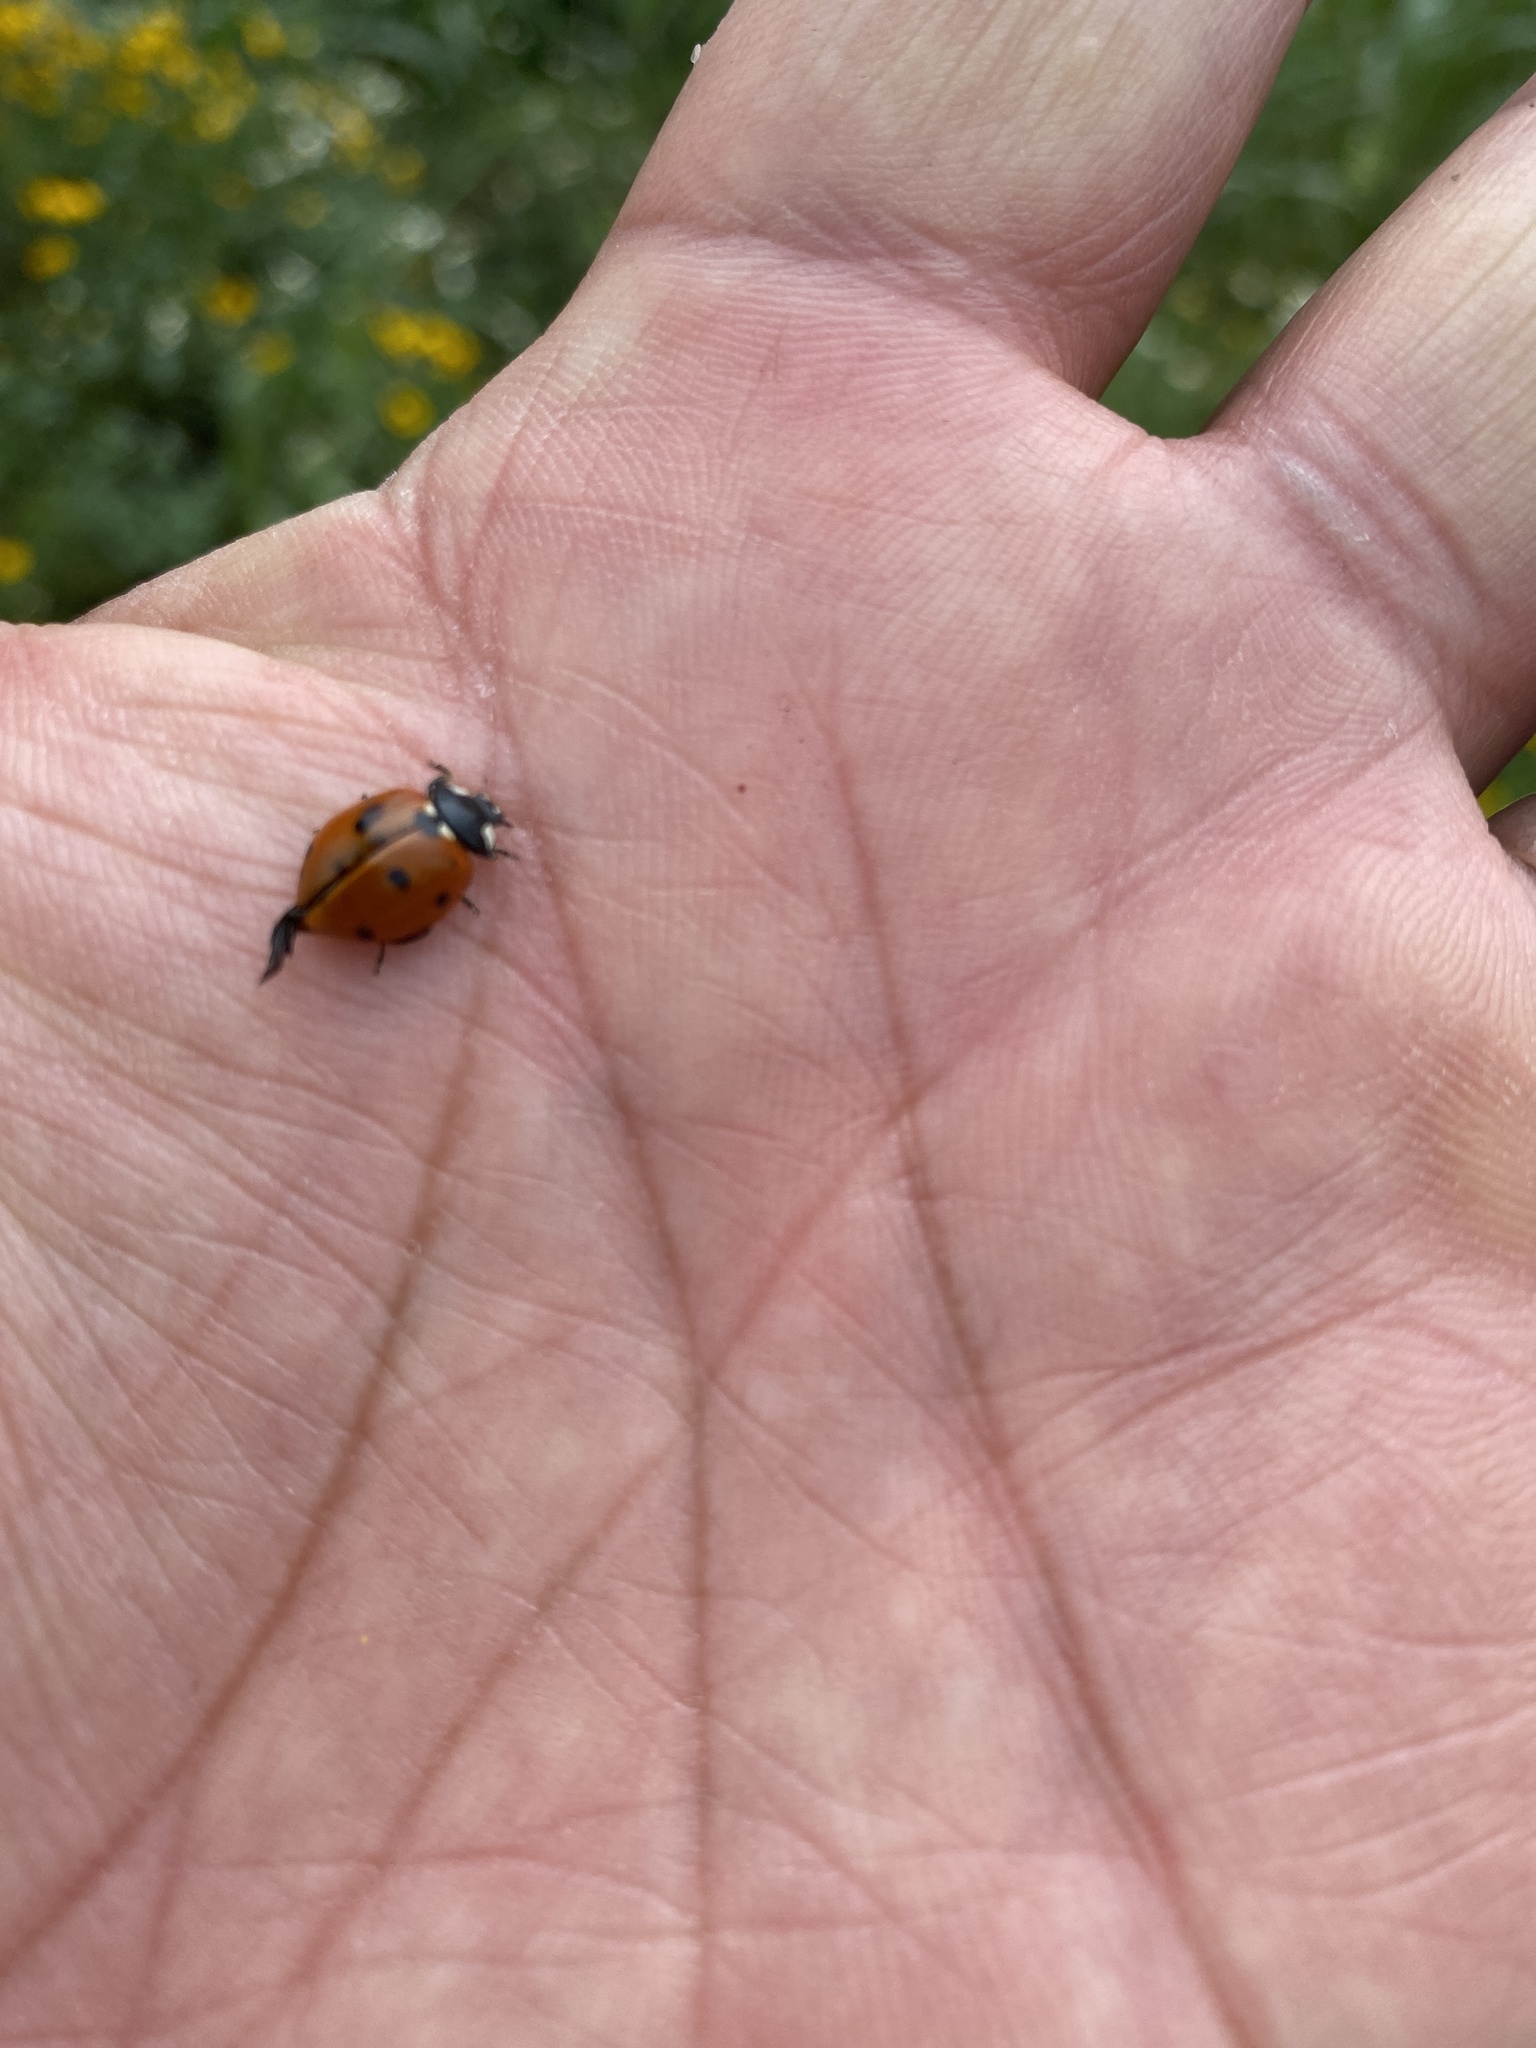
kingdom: Animalia
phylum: Arthropoda
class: Insecta
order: Coleoptera
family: Coccinellidae
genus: Coccinella
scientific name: Coccinella septempunctata
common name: Sevenspotted lady beetle
